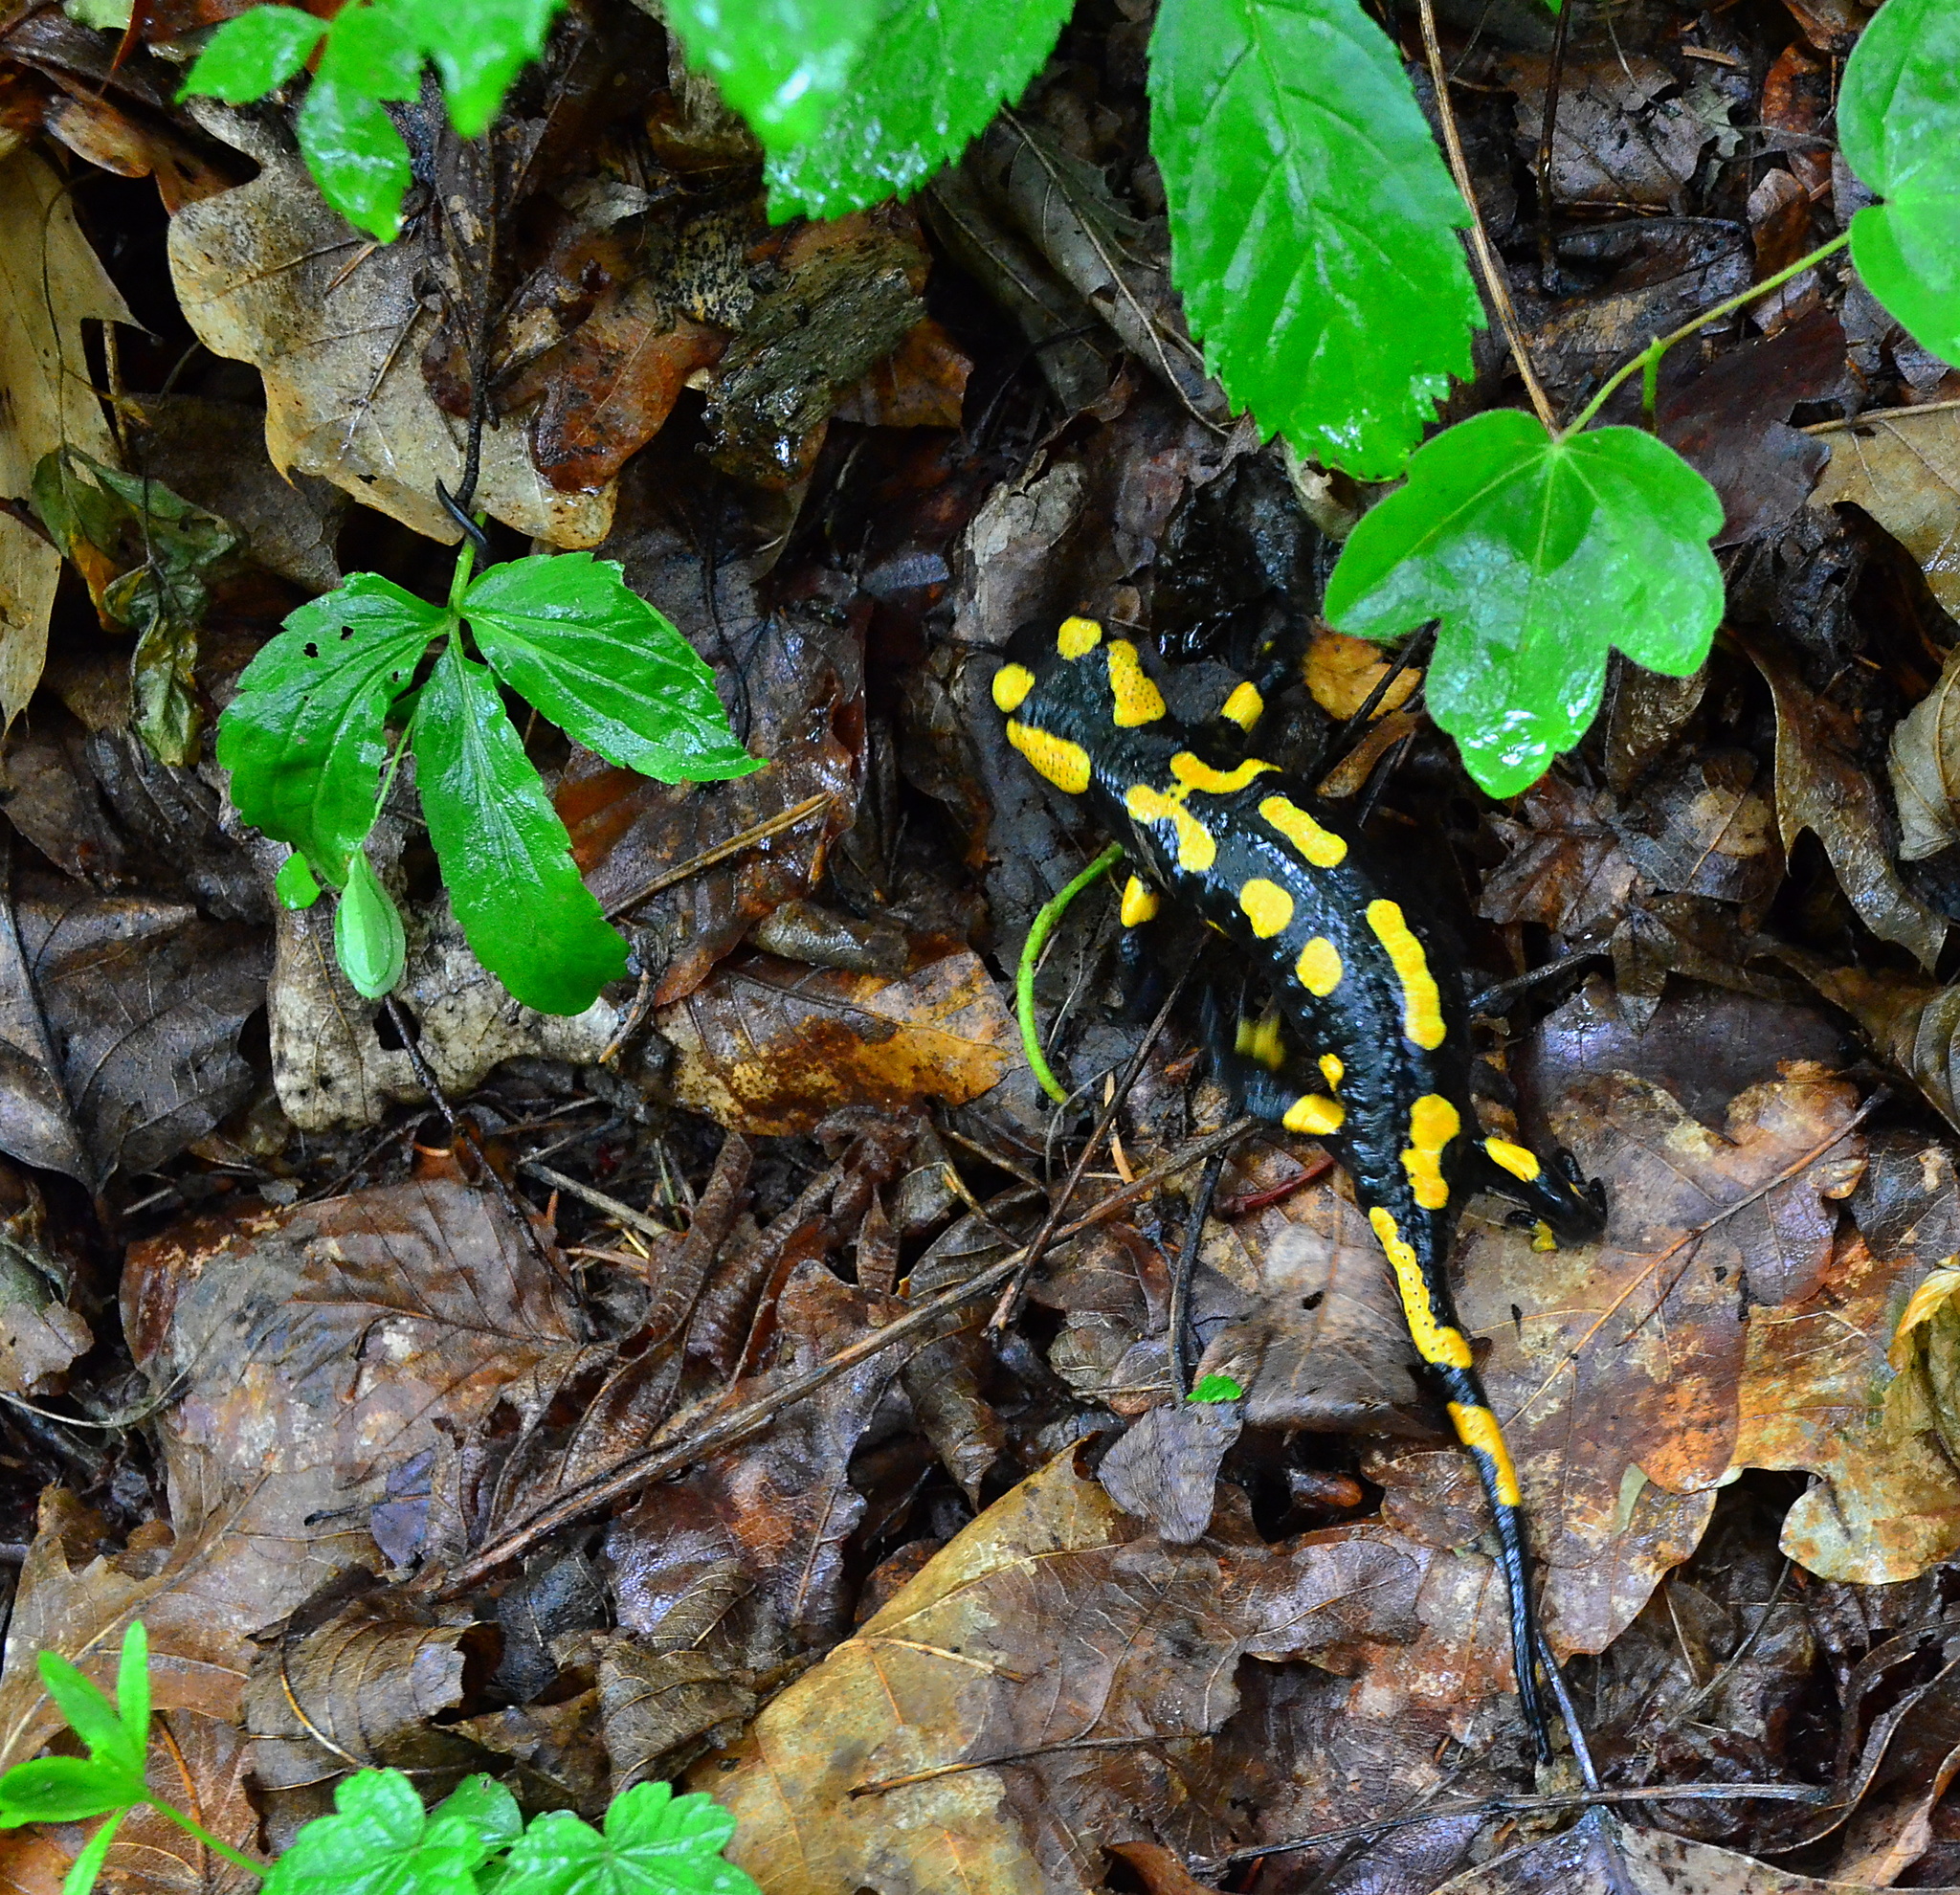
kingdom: Animalia
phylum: Chordata
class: Amphibia
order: Caudata
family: Salamandridae
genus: Salamandra
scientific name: Salamandra salamandra
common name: Fire salamander
